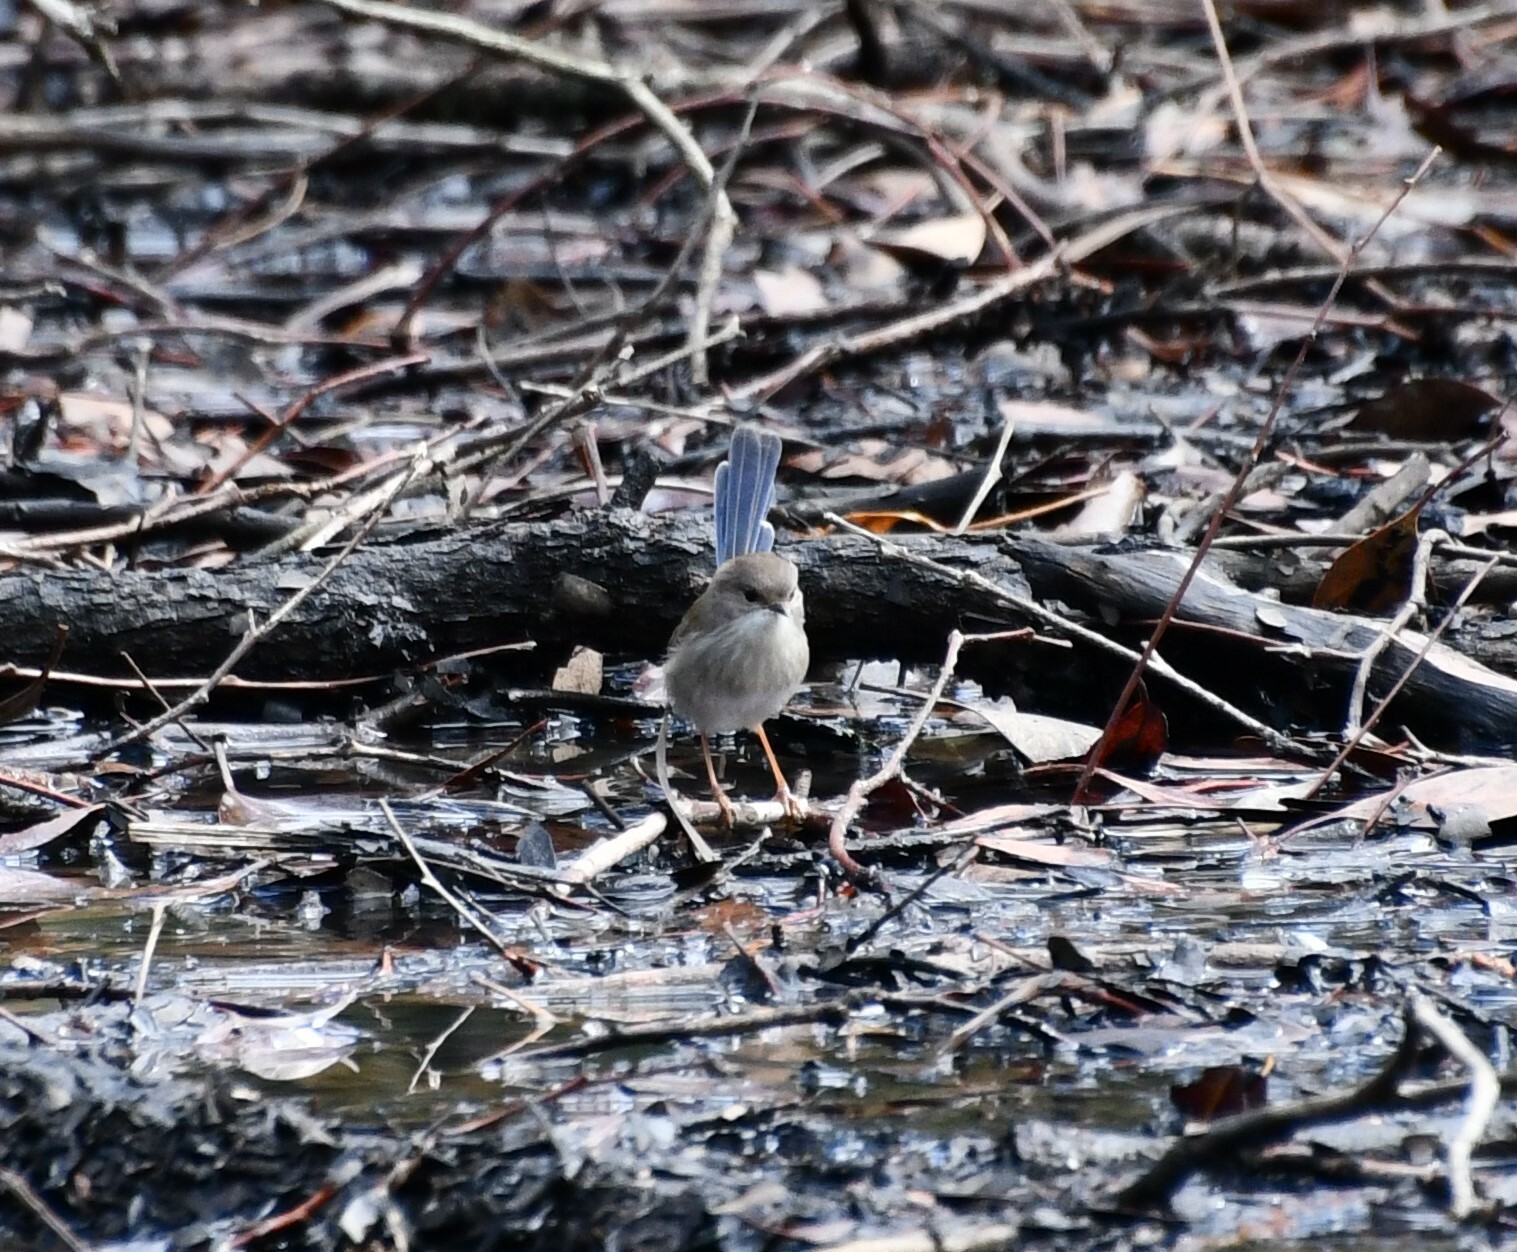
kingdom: Animalia
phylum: Chordata
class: Aves
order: Passeriformes
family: Maluridae
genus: Malurus
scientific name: Malurus cyaneus
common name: Superb fairywren
